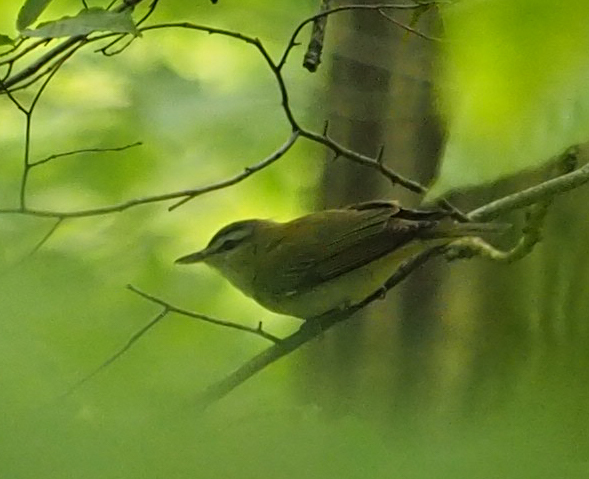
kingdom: Animalia
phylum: Chordata
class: Aves
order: Passeriformes
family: Vireonidae
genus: Vireo
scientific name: Vireo olivaceus
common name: Red-eyed vireo
